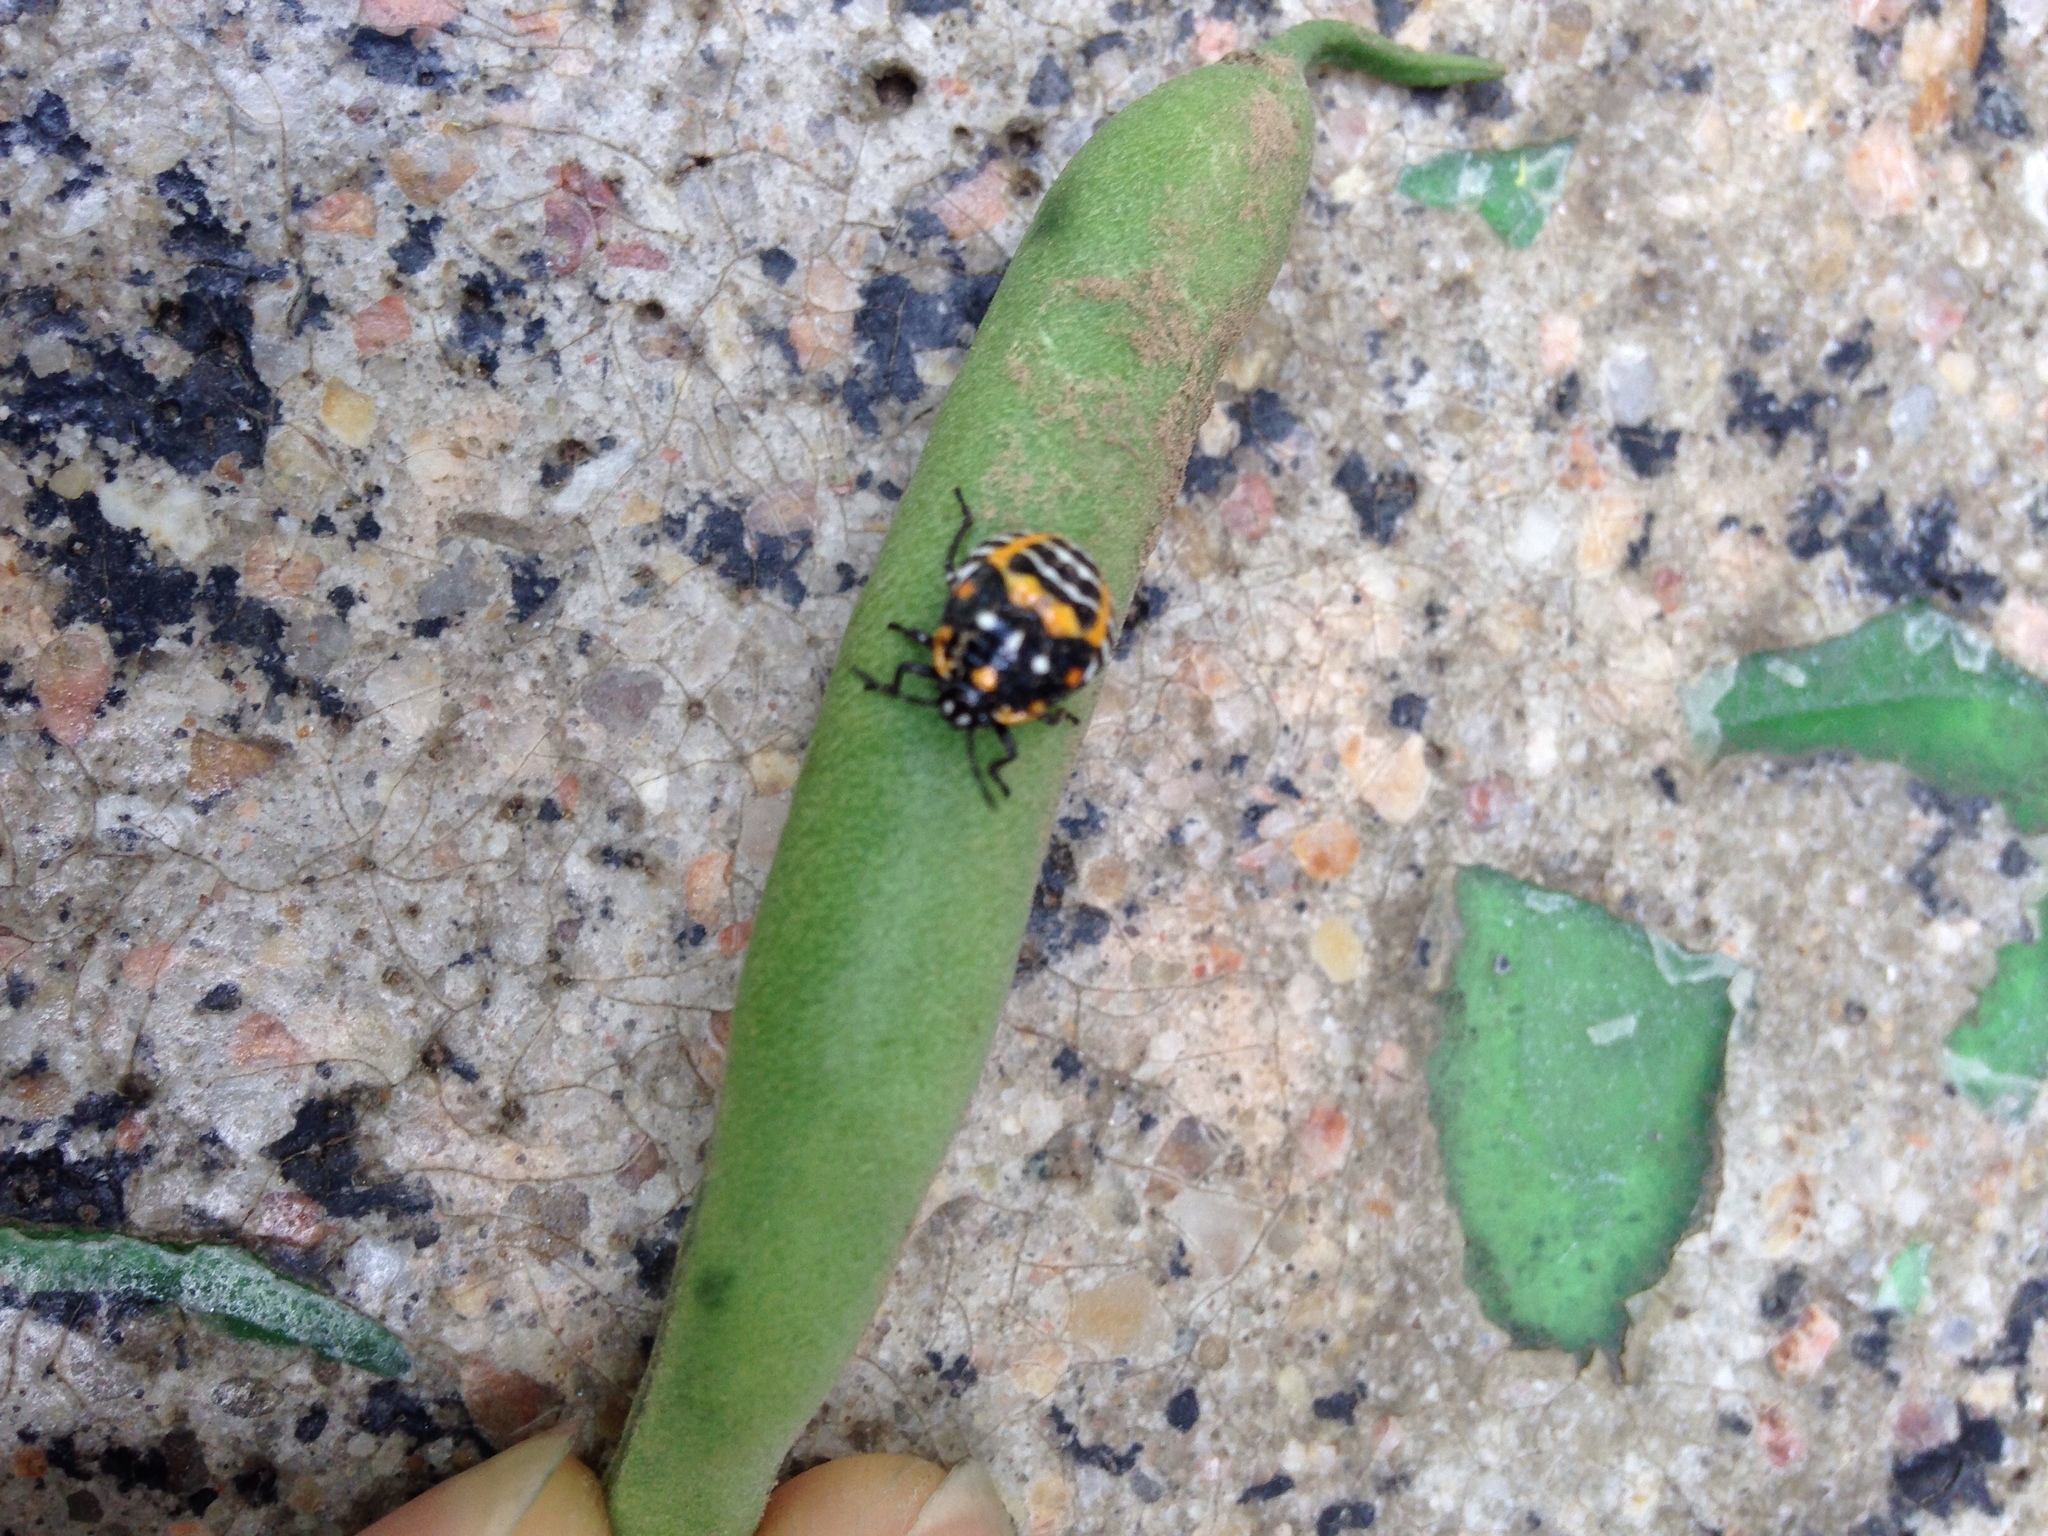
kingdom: Animalia
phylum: Arthropoda
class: Insecta
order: Hemiptera
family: Pentatomidae
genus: Murgantia
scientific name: Murgantia histrionica
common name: Harlequin bug
